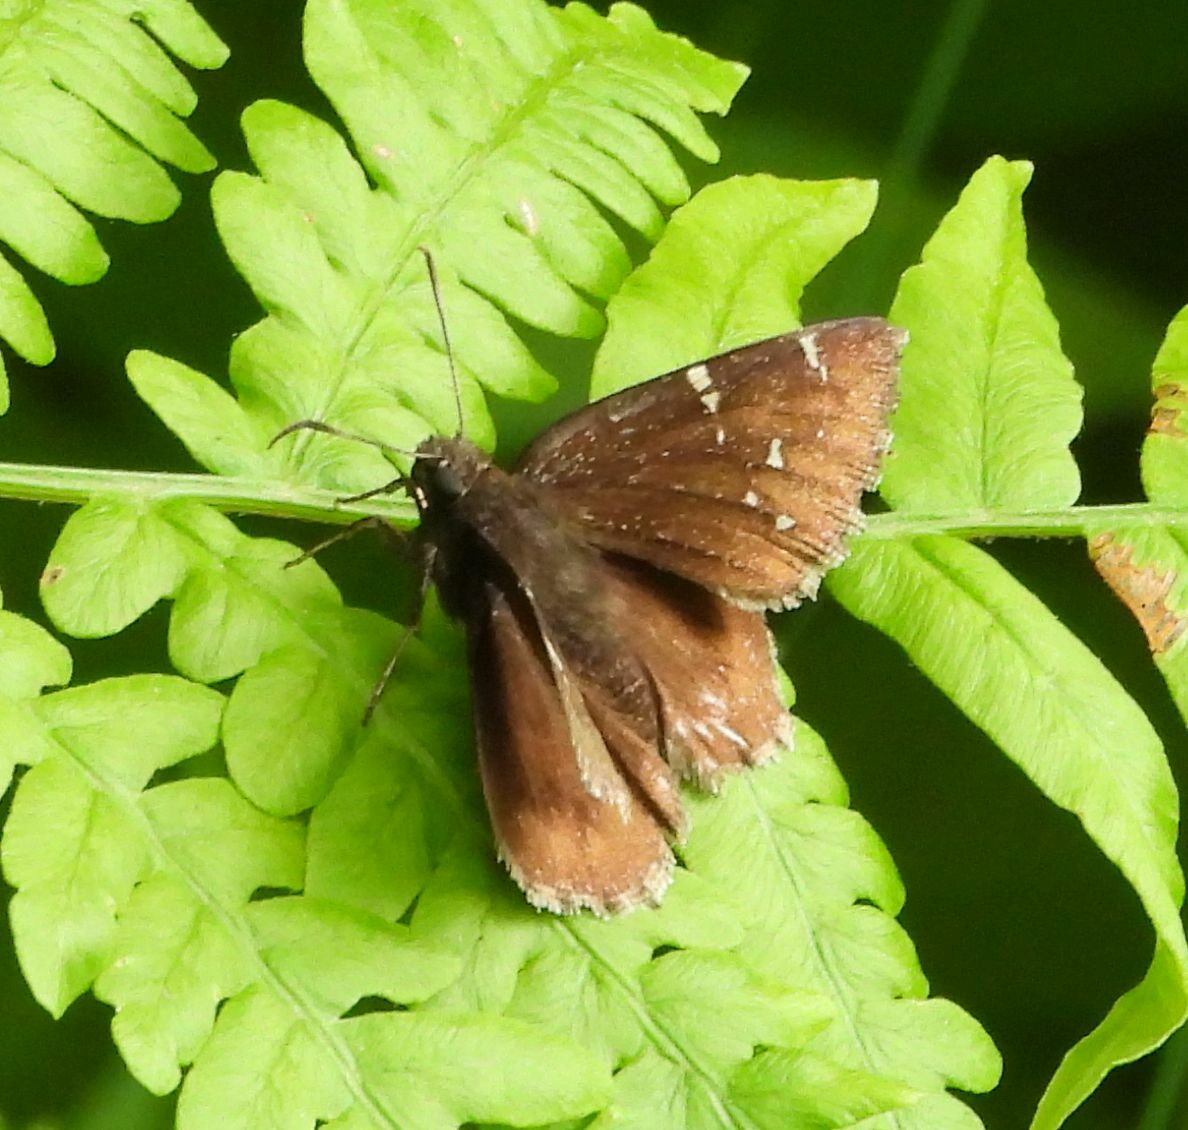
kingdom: Animalia
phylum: Arthropoda
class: Insecta
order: Lepidoptera
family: Hesperiidae
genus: Thorybes
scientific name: Thorybes pylades
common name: Northern cloudywing
